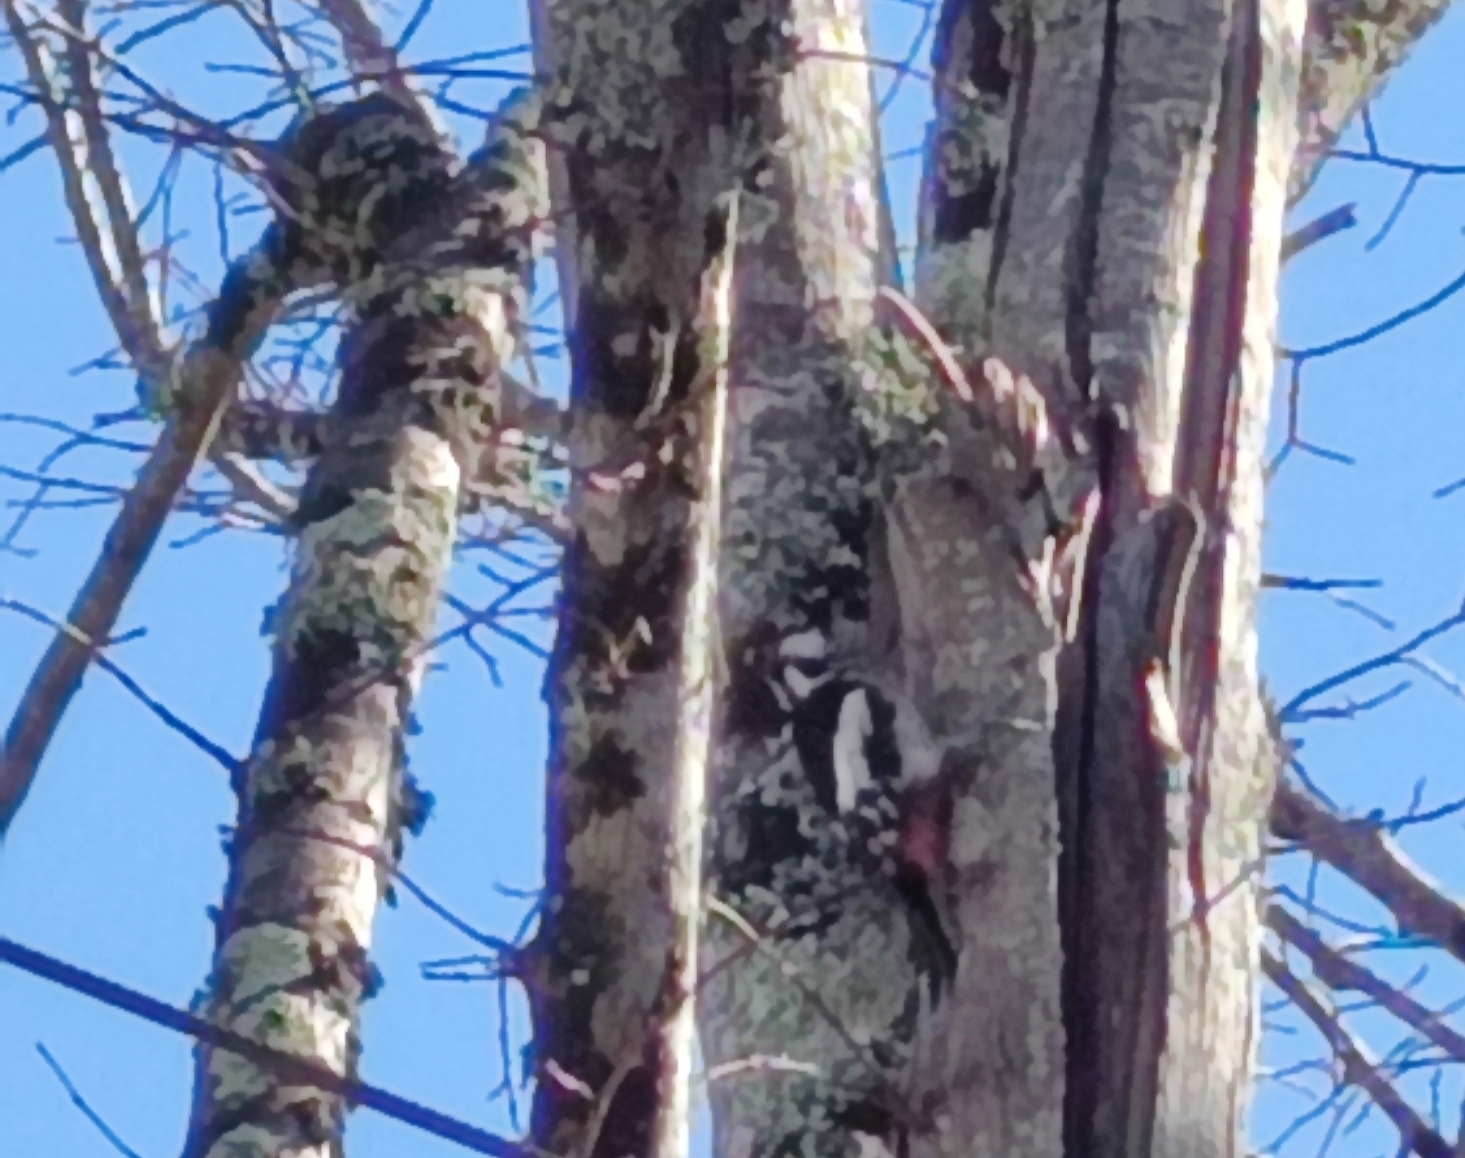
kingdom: Animalia
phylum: Chordata
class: Aves
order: Piciformes
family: Picidae
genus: Dendrocopos
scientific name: Dendrocopos major
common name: Great spotted woodpecker
